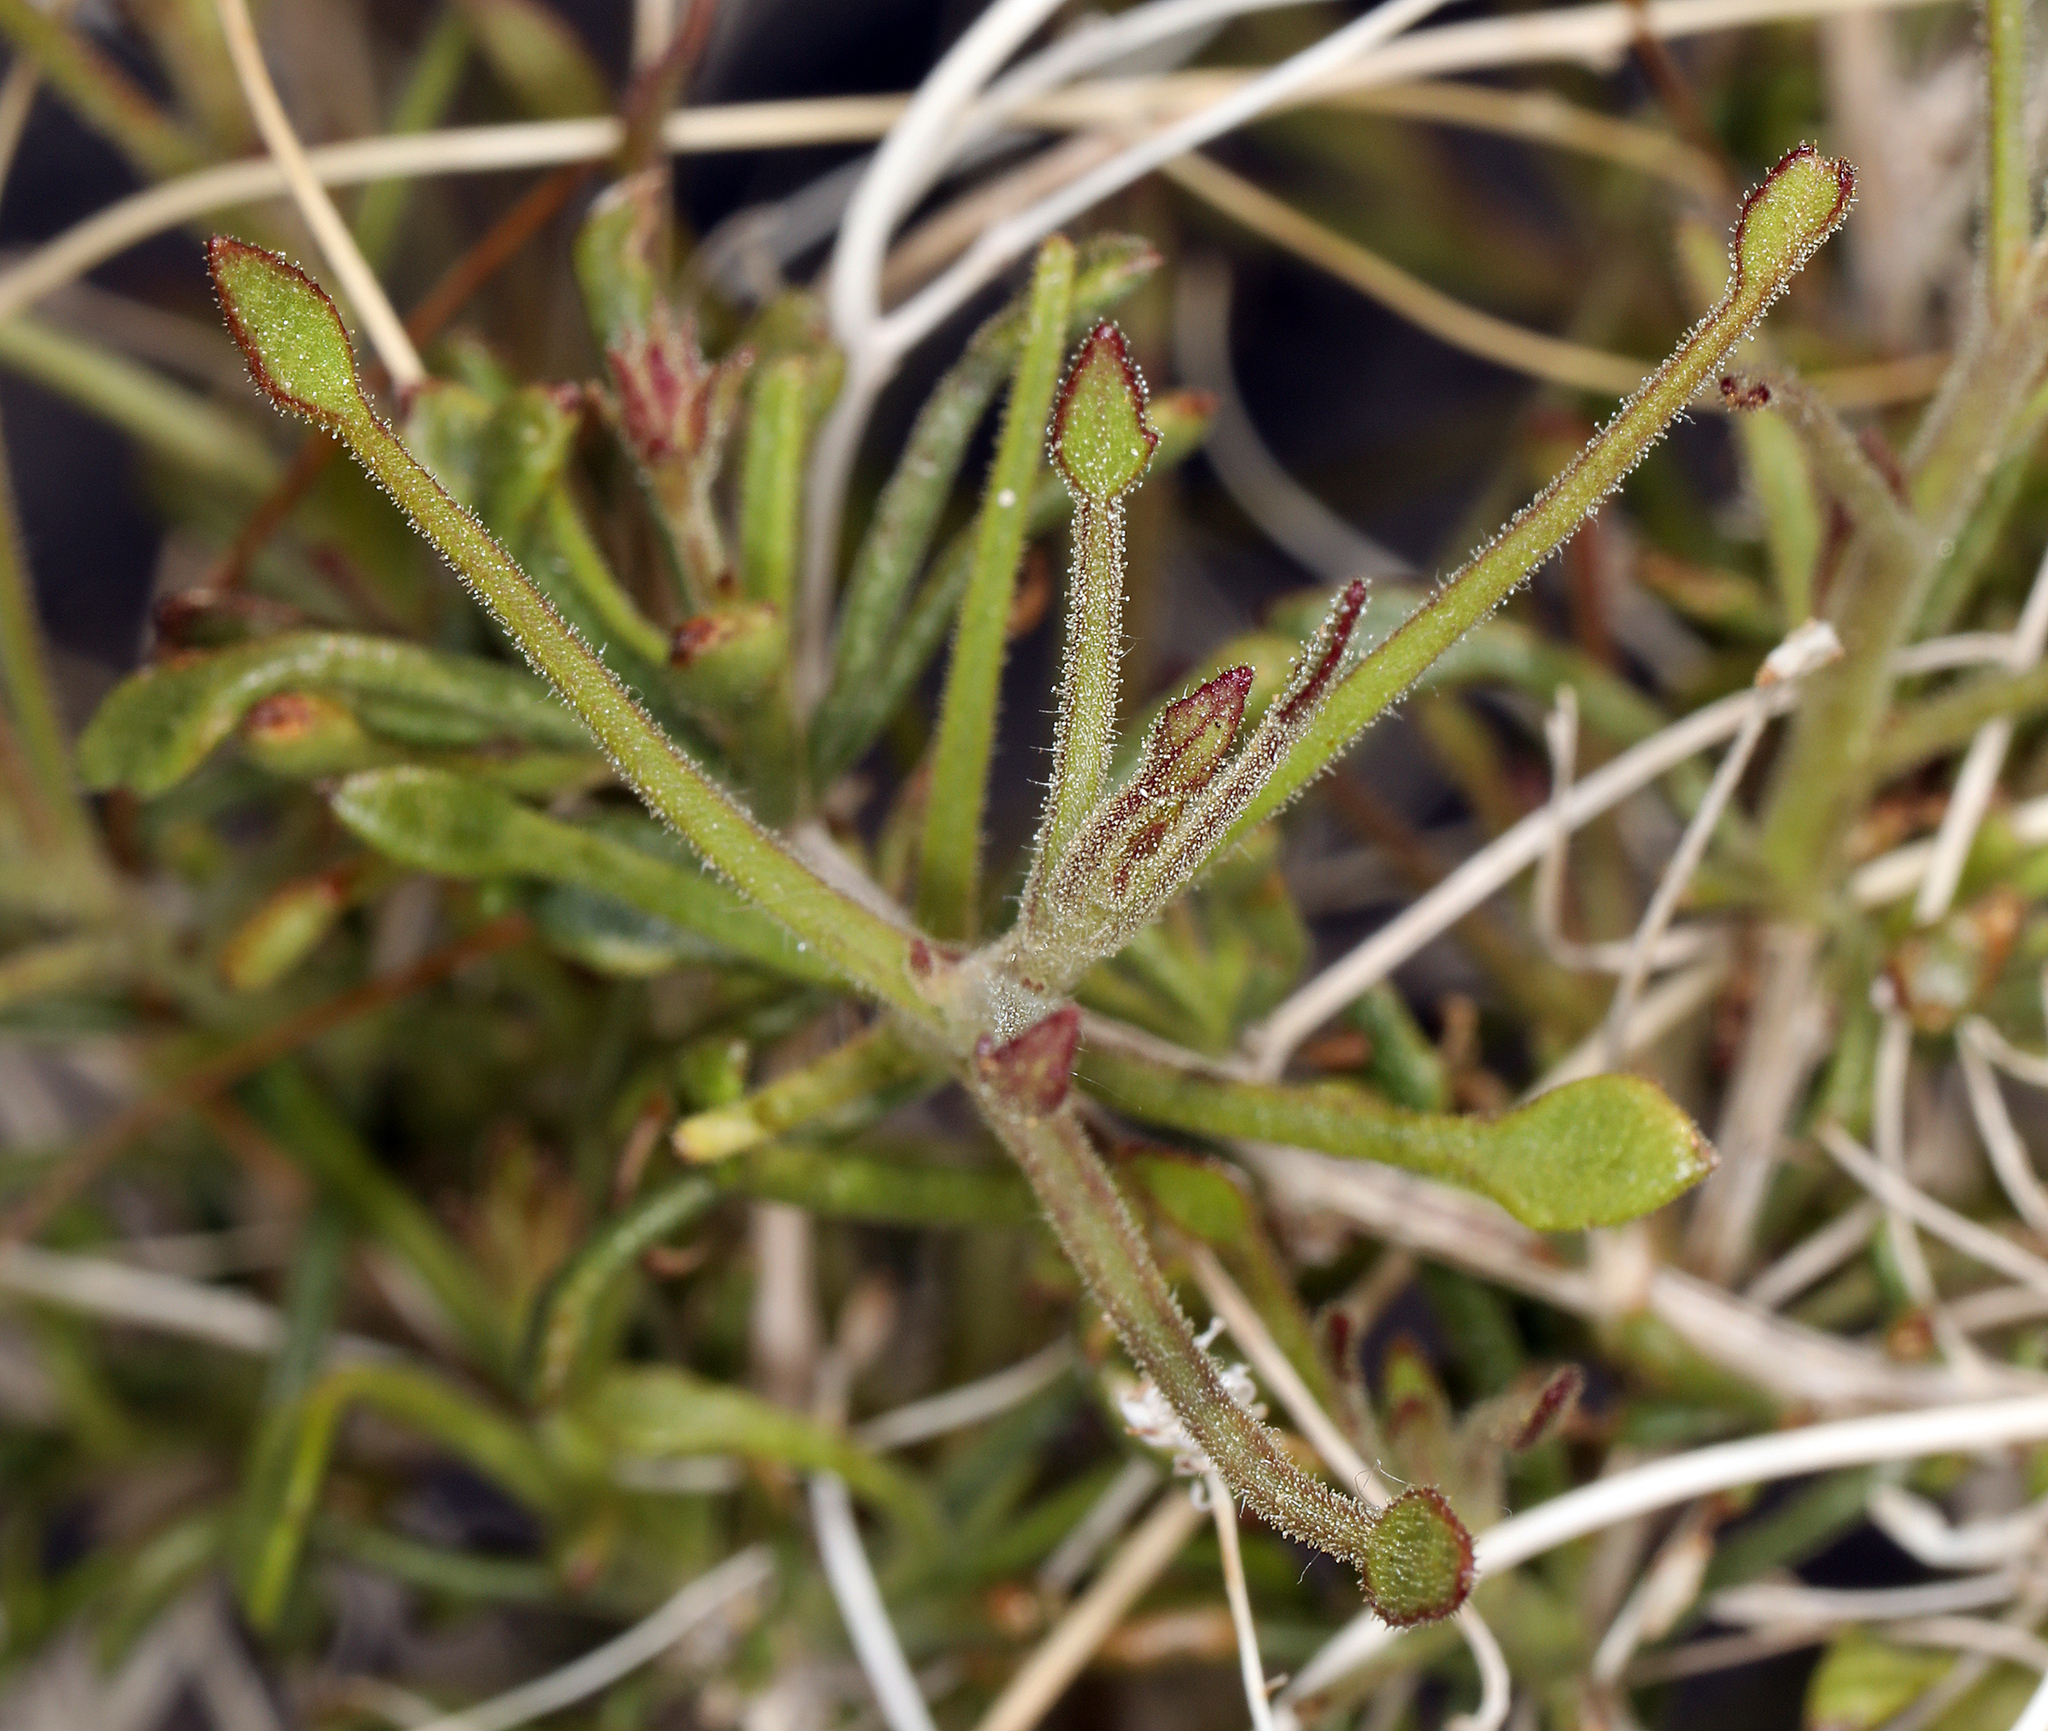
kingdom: Plantae
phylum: Tracheophyta
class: Magnoliopsida
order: Asterales
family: Asteraceae
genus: Pleurocoronis
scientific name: Pleurocoronis pluriseta
